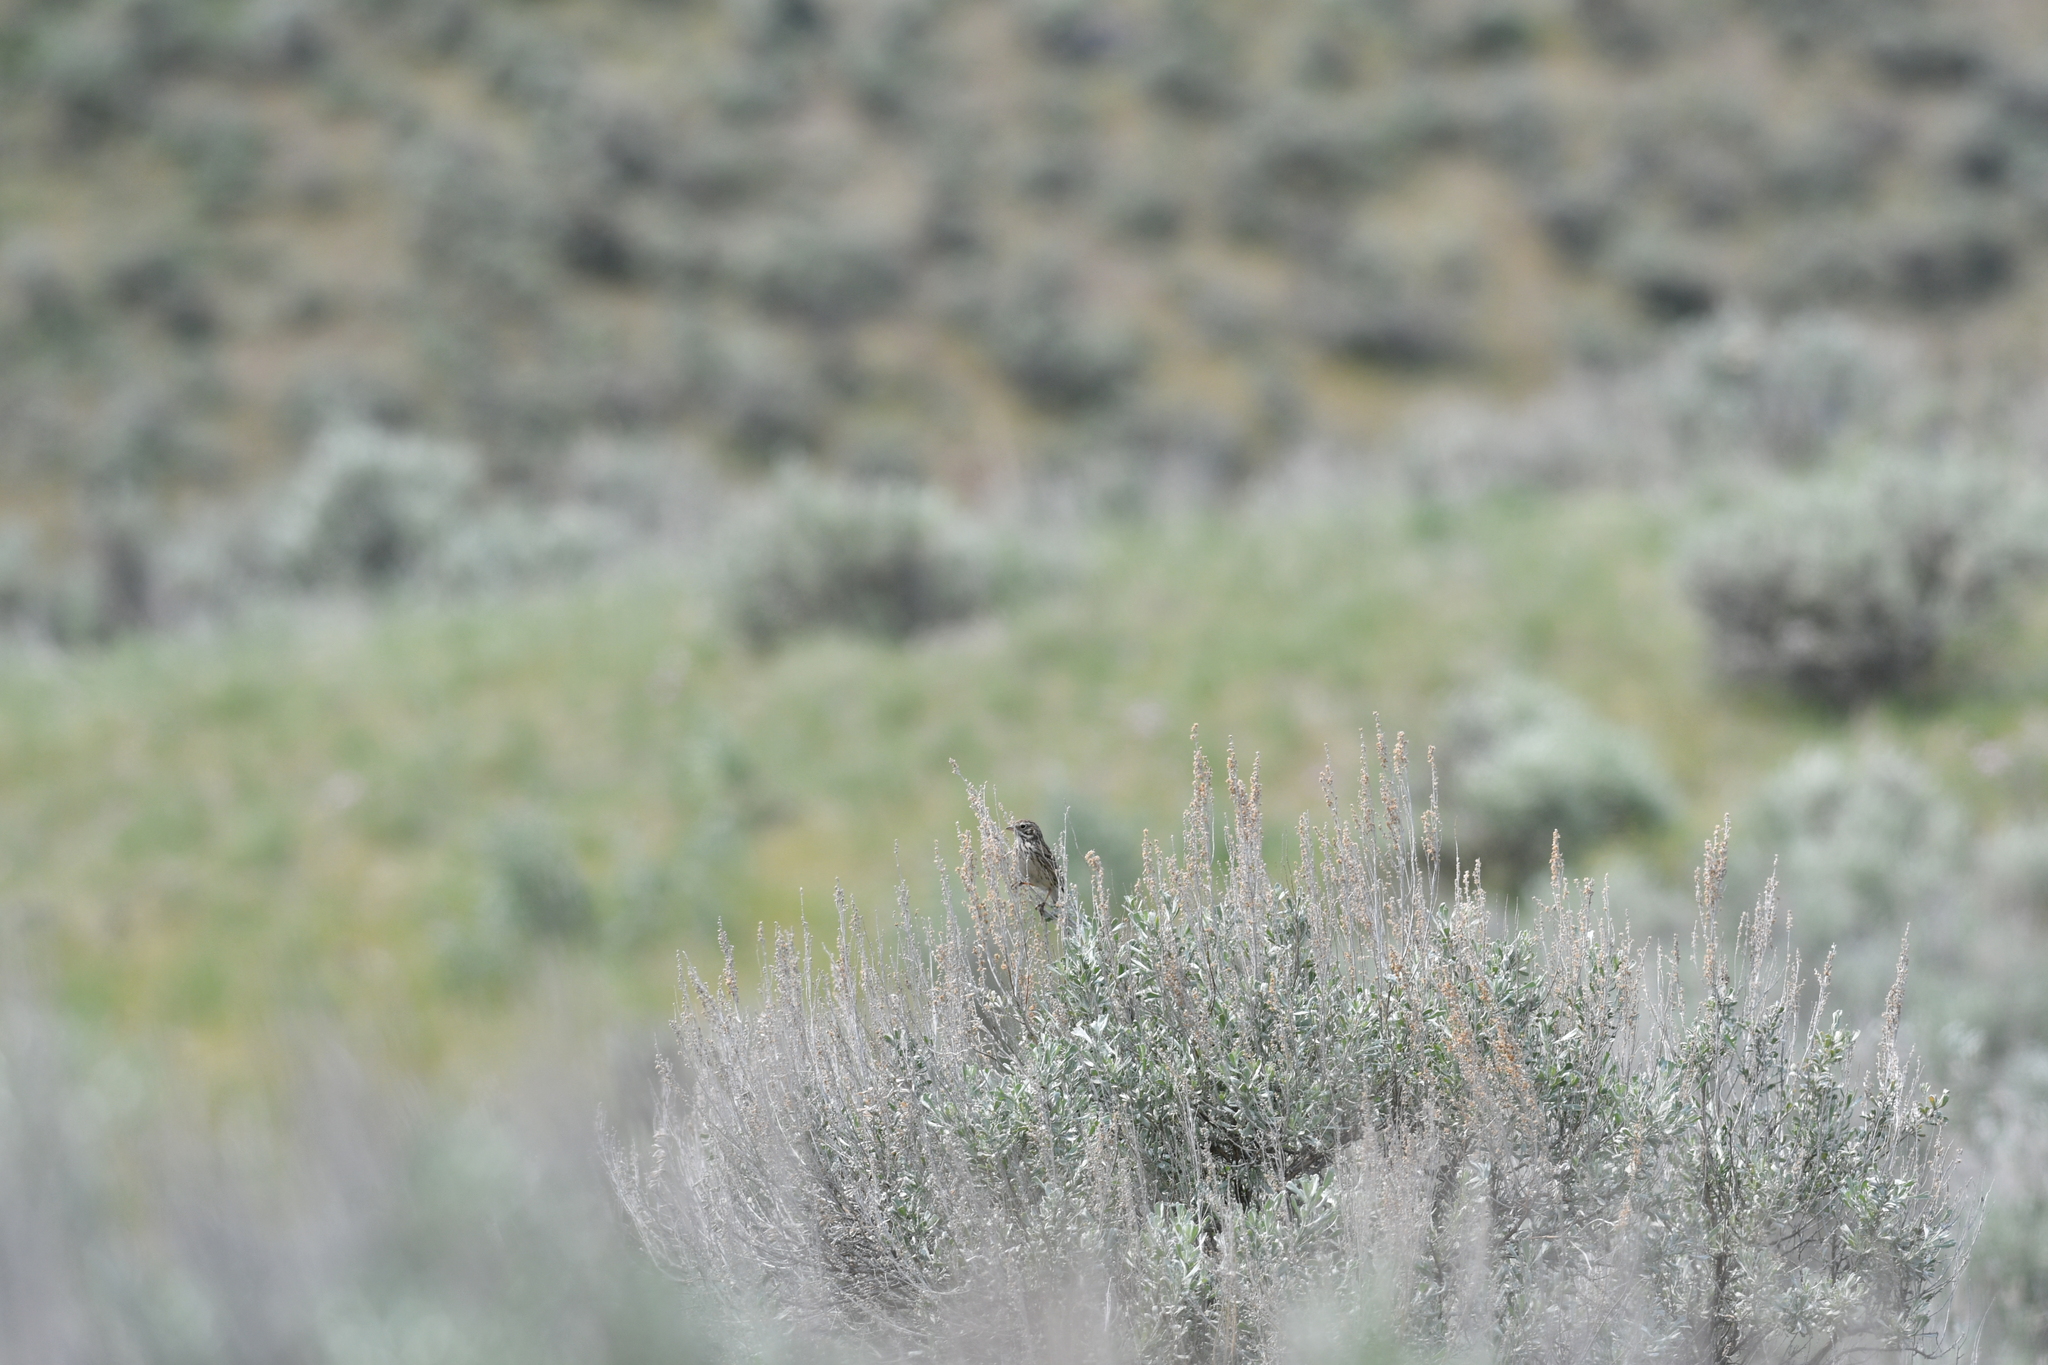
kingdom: Animalia
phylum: Chordata
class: Aves
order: Passeriformes
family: Passerellidae
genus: Pooecetes
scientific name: Pooecetes gramineus
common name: Vesper sparrow
